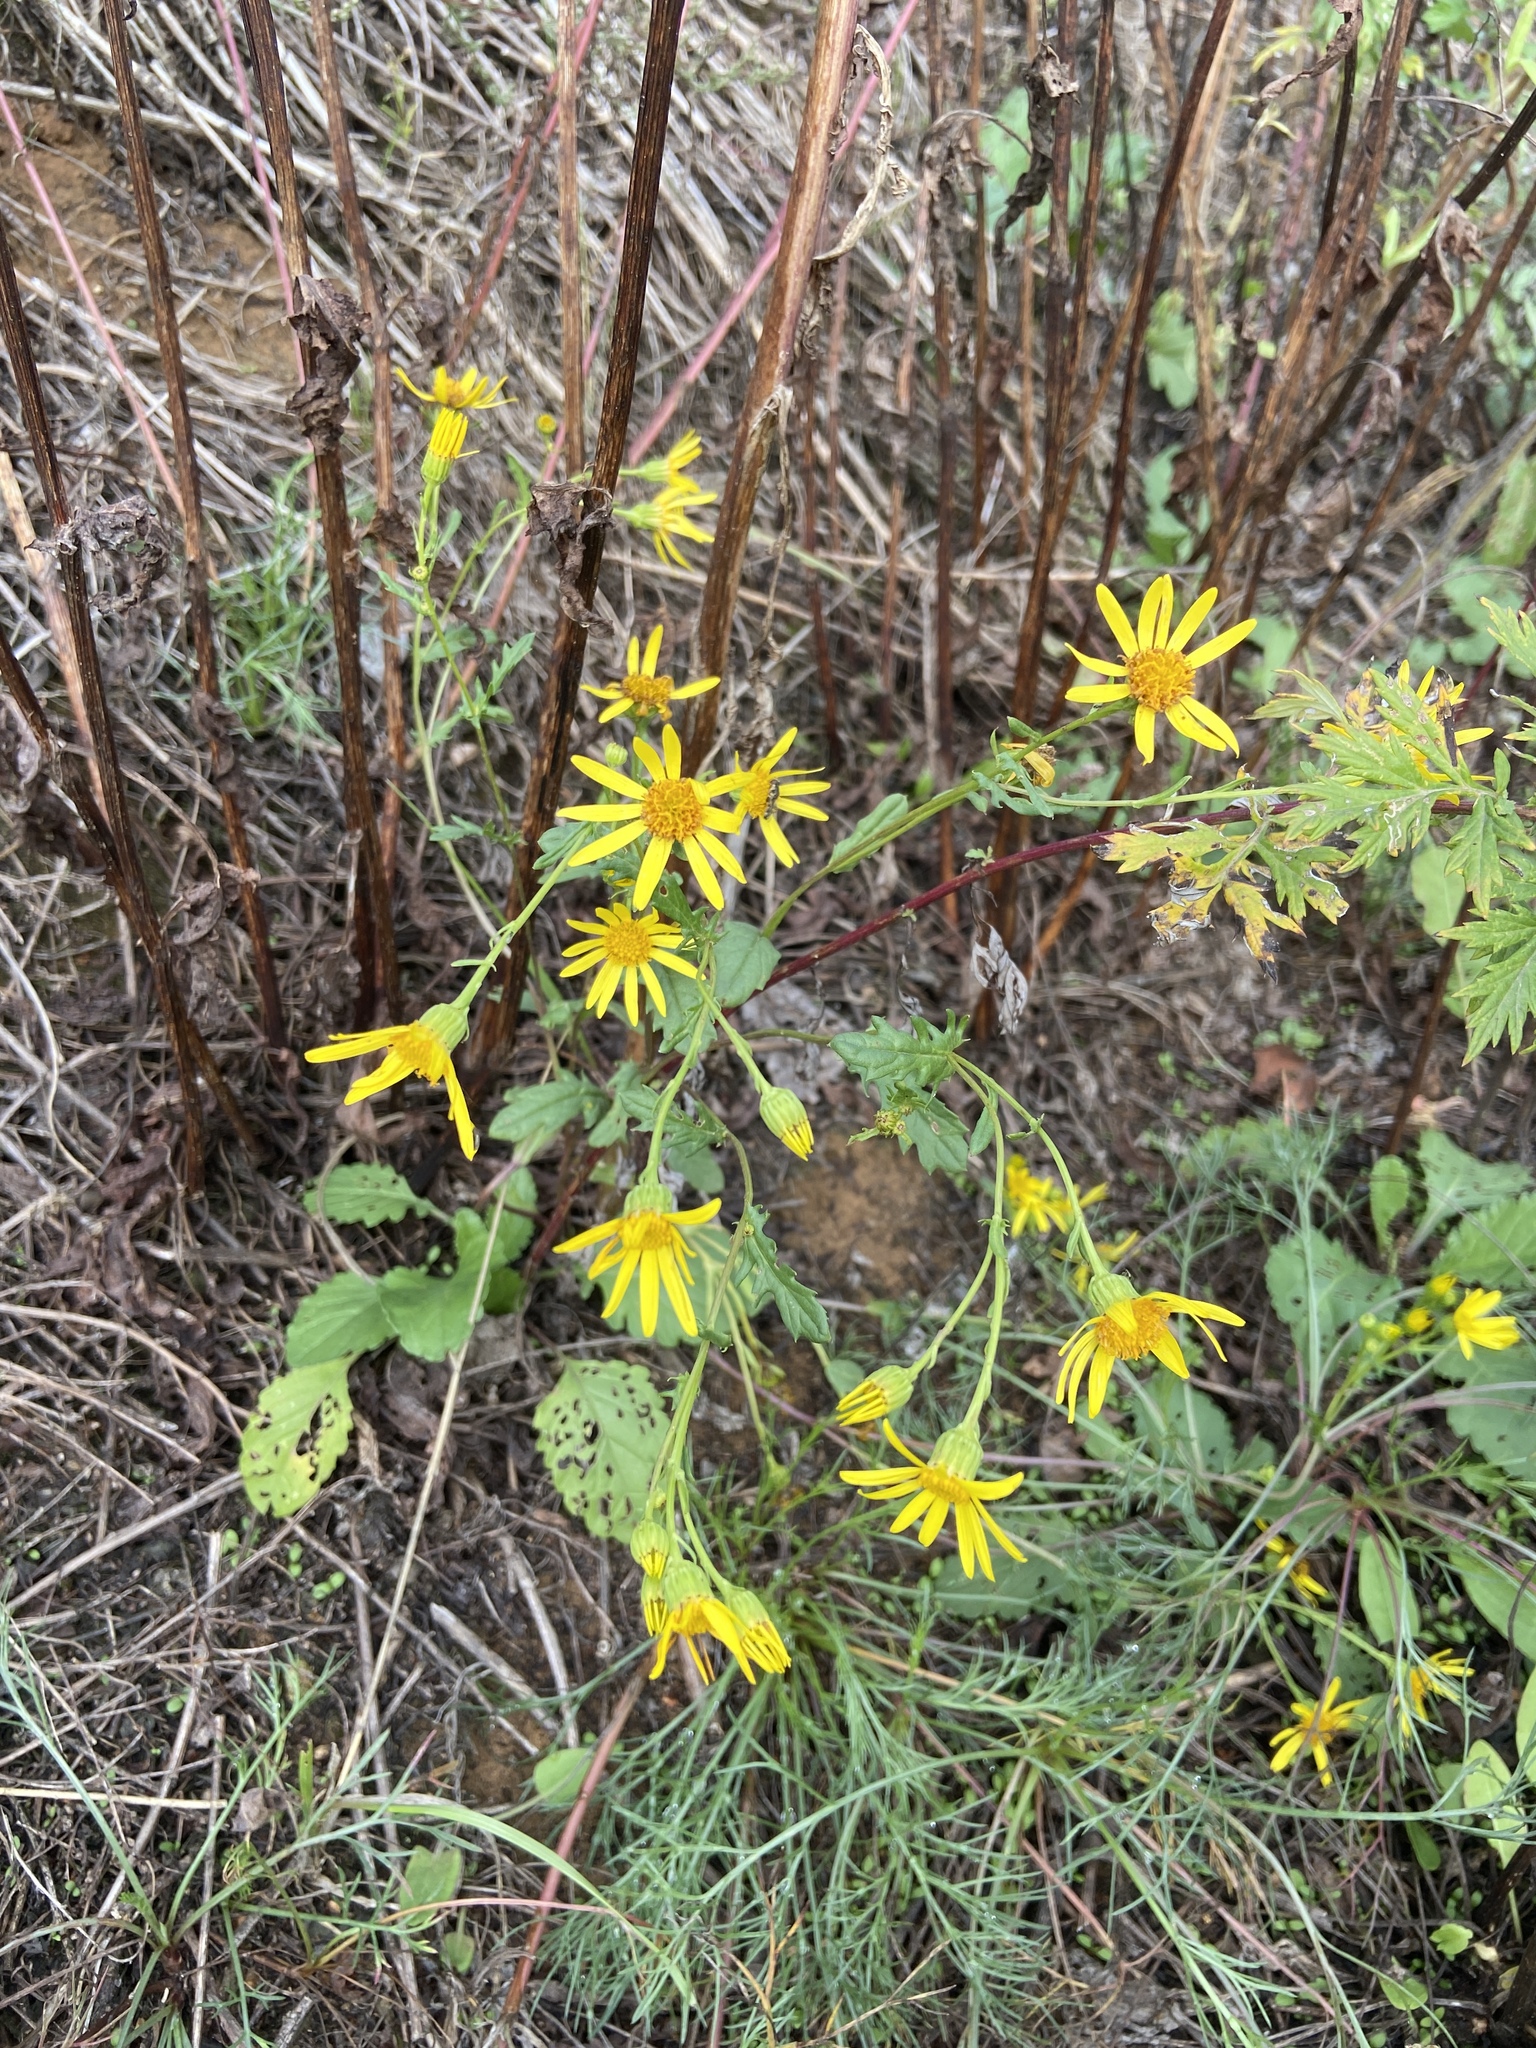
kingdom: Plantae
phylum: Tracheophyta
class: Magnoliopsida
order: Asterales
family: Asteraceae
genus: Jacobaea
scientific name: Jacobaea vulgaris
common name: Stinking willie
